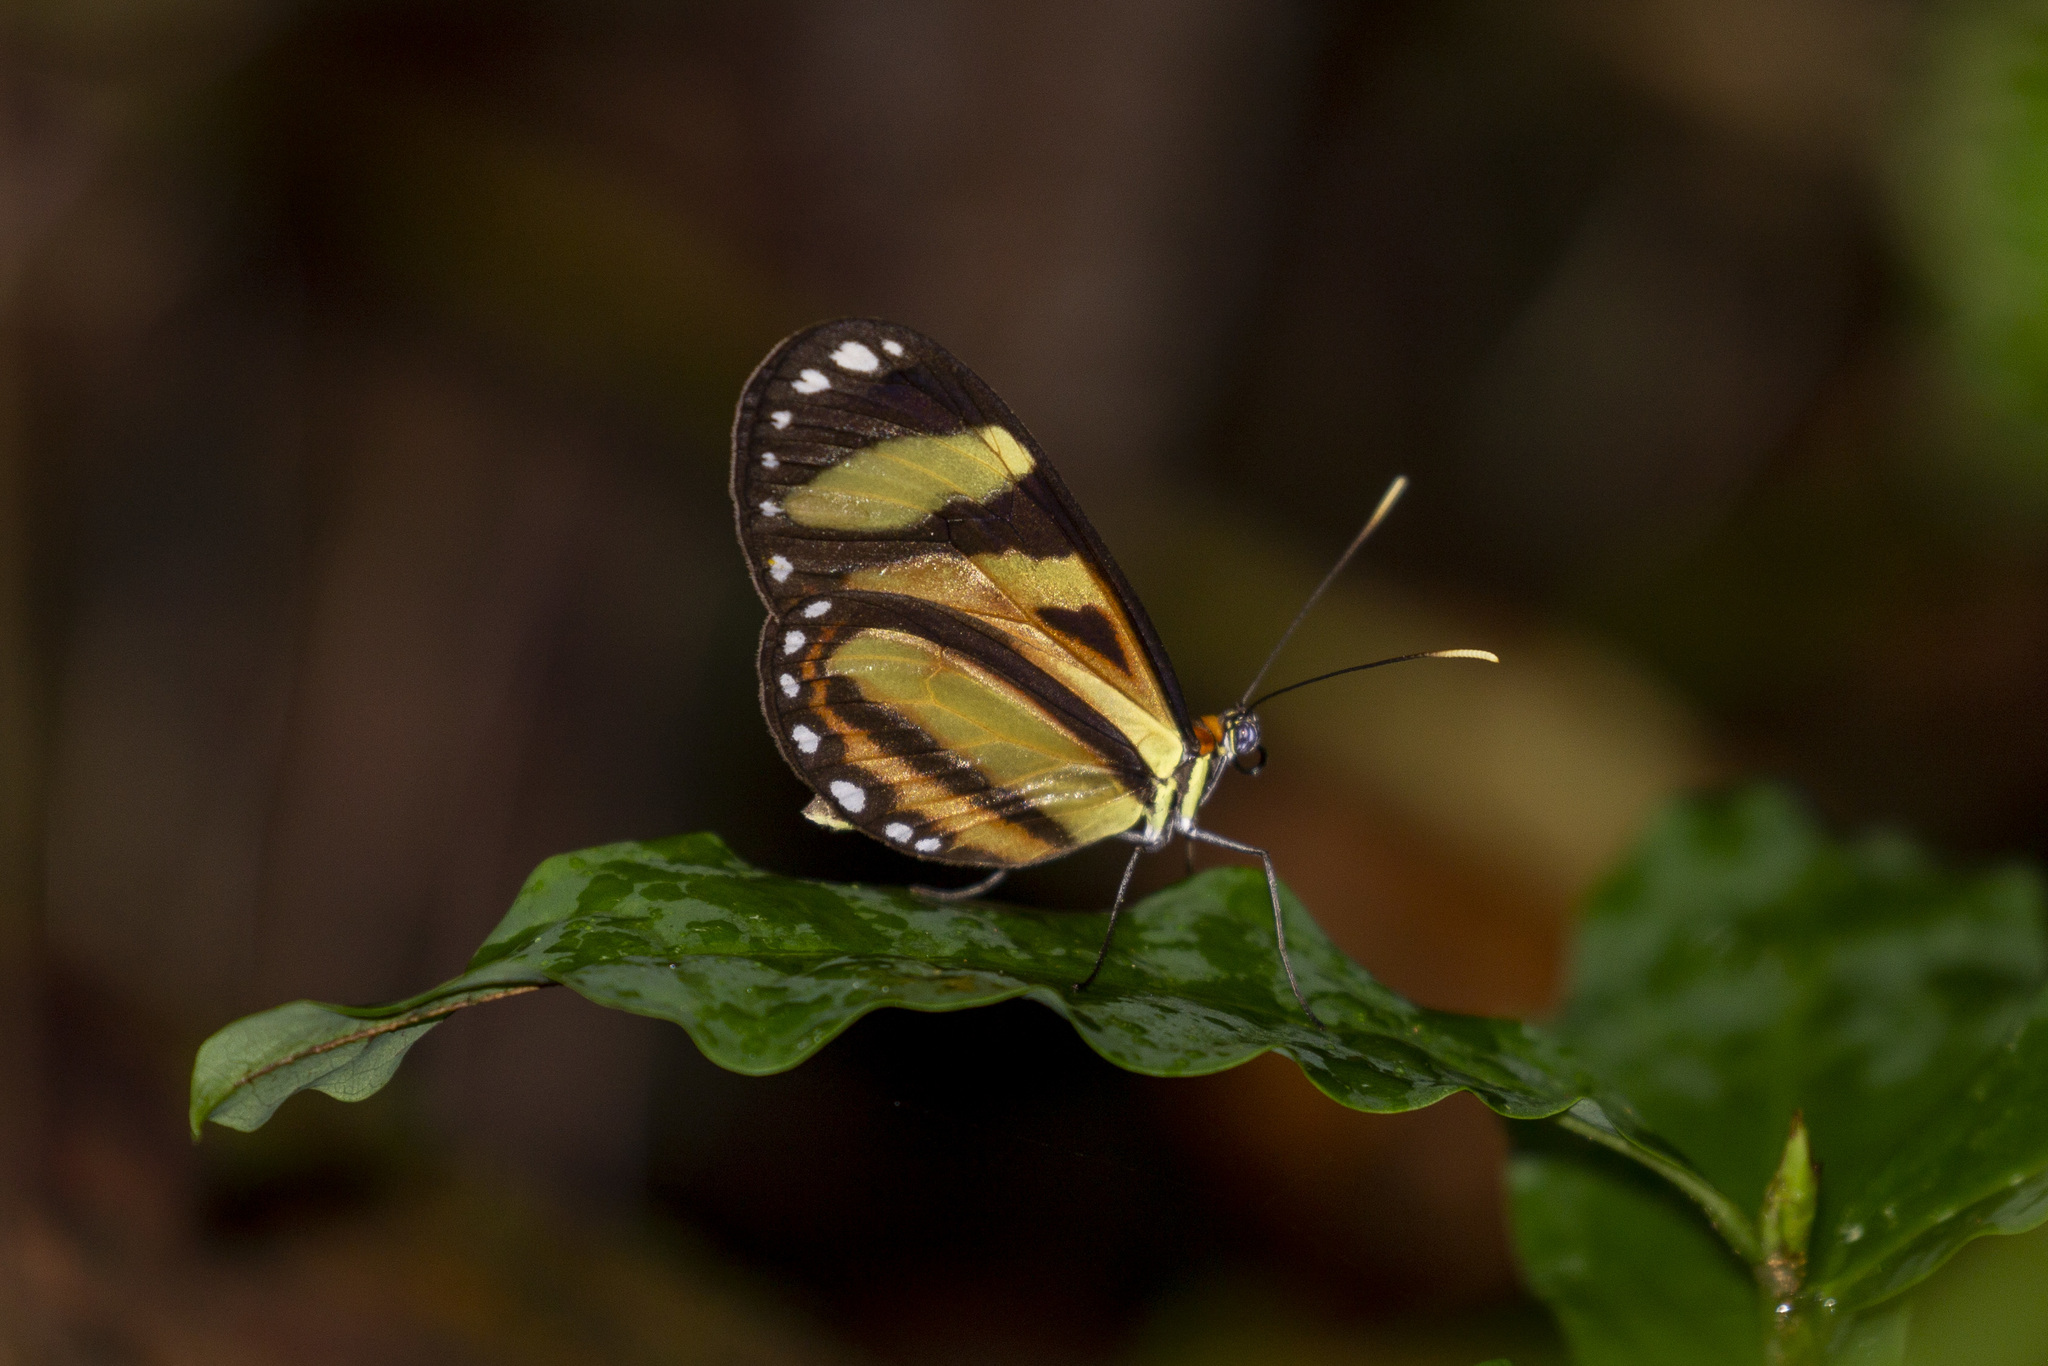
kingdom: Animalia
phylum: Arthropoda
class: Insecta
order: Lepidoptera
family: Nymphalidae
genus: Hypothyris
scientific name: Hypothyris ninonia
